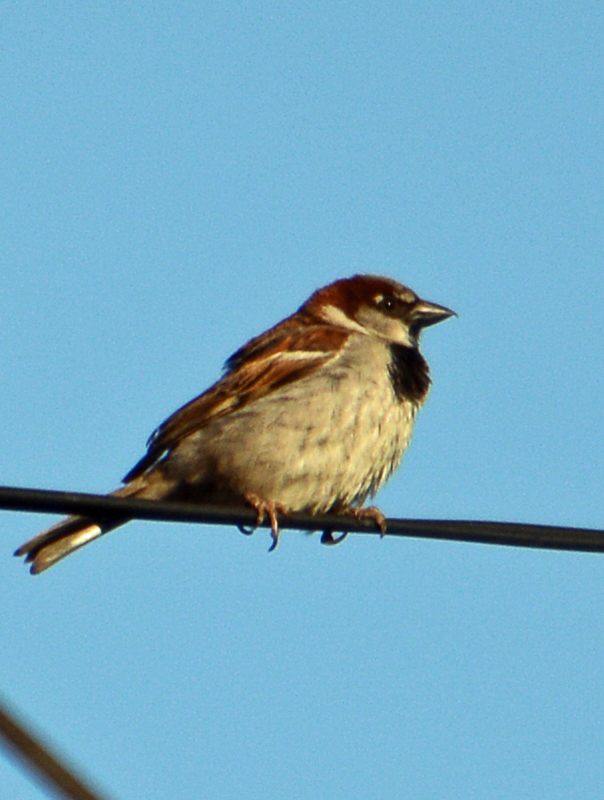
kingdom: Animalia
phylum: Chordata
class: Aves
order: Passeriformes
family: Passeridae
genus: Passer
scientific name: Passer domesticus
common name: House sparrow
